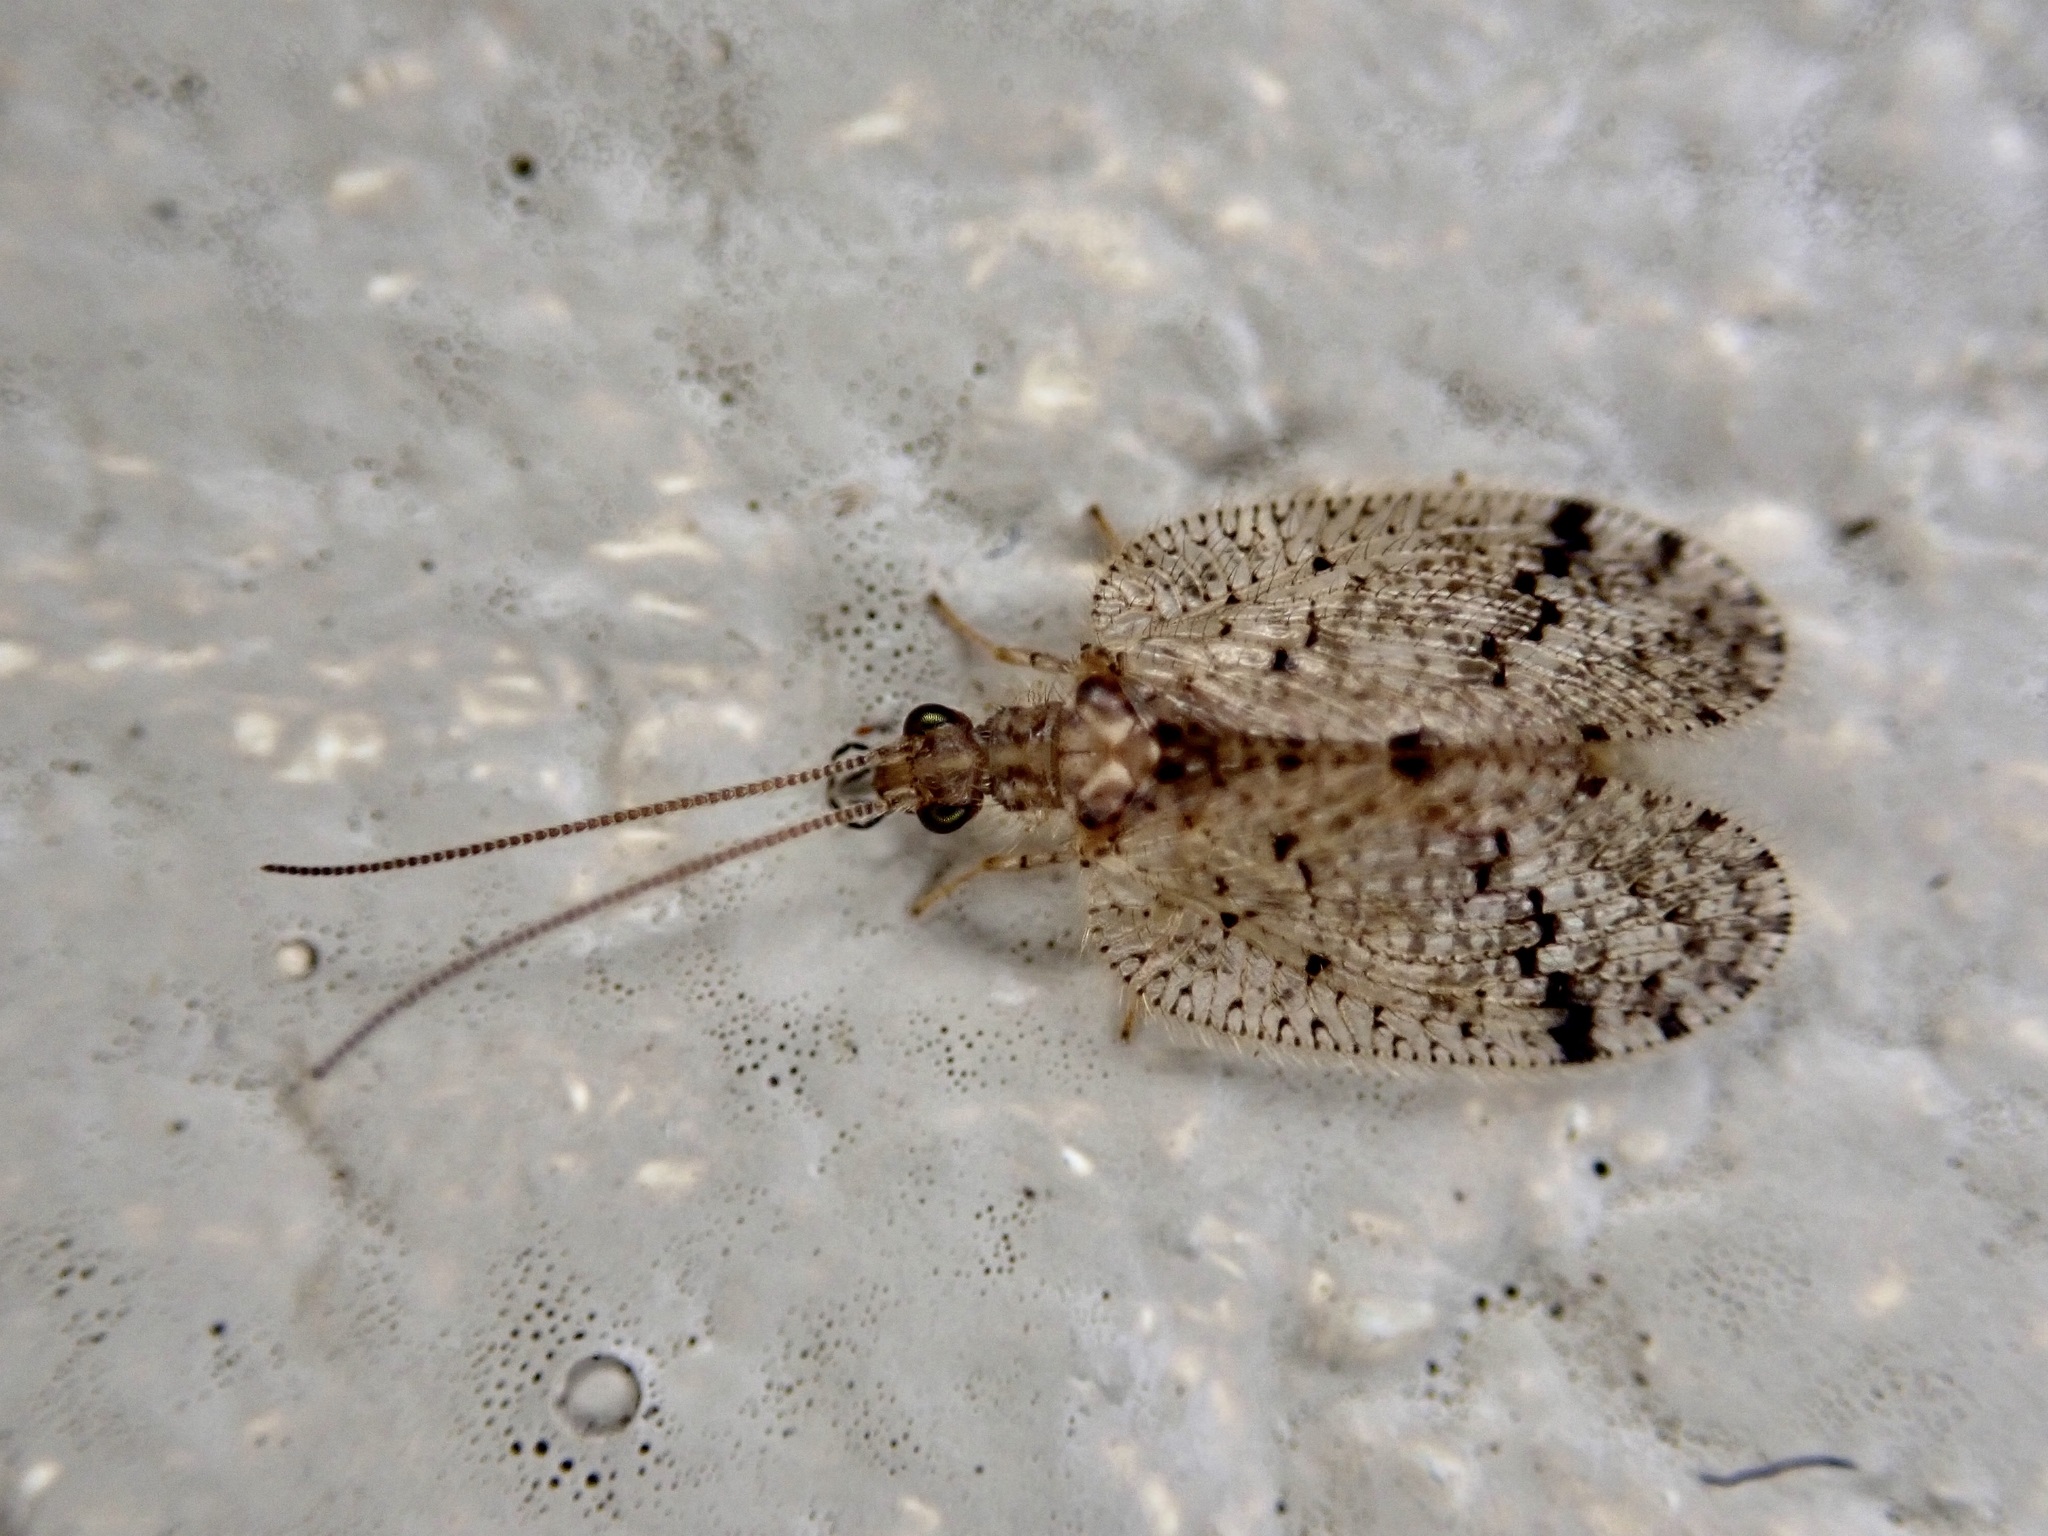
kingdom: Animalia
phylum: Arthropoda
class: Insecta
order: Neuroptera
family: Hemerobiidae
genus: Psectra
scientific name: Psectra nakaharai
